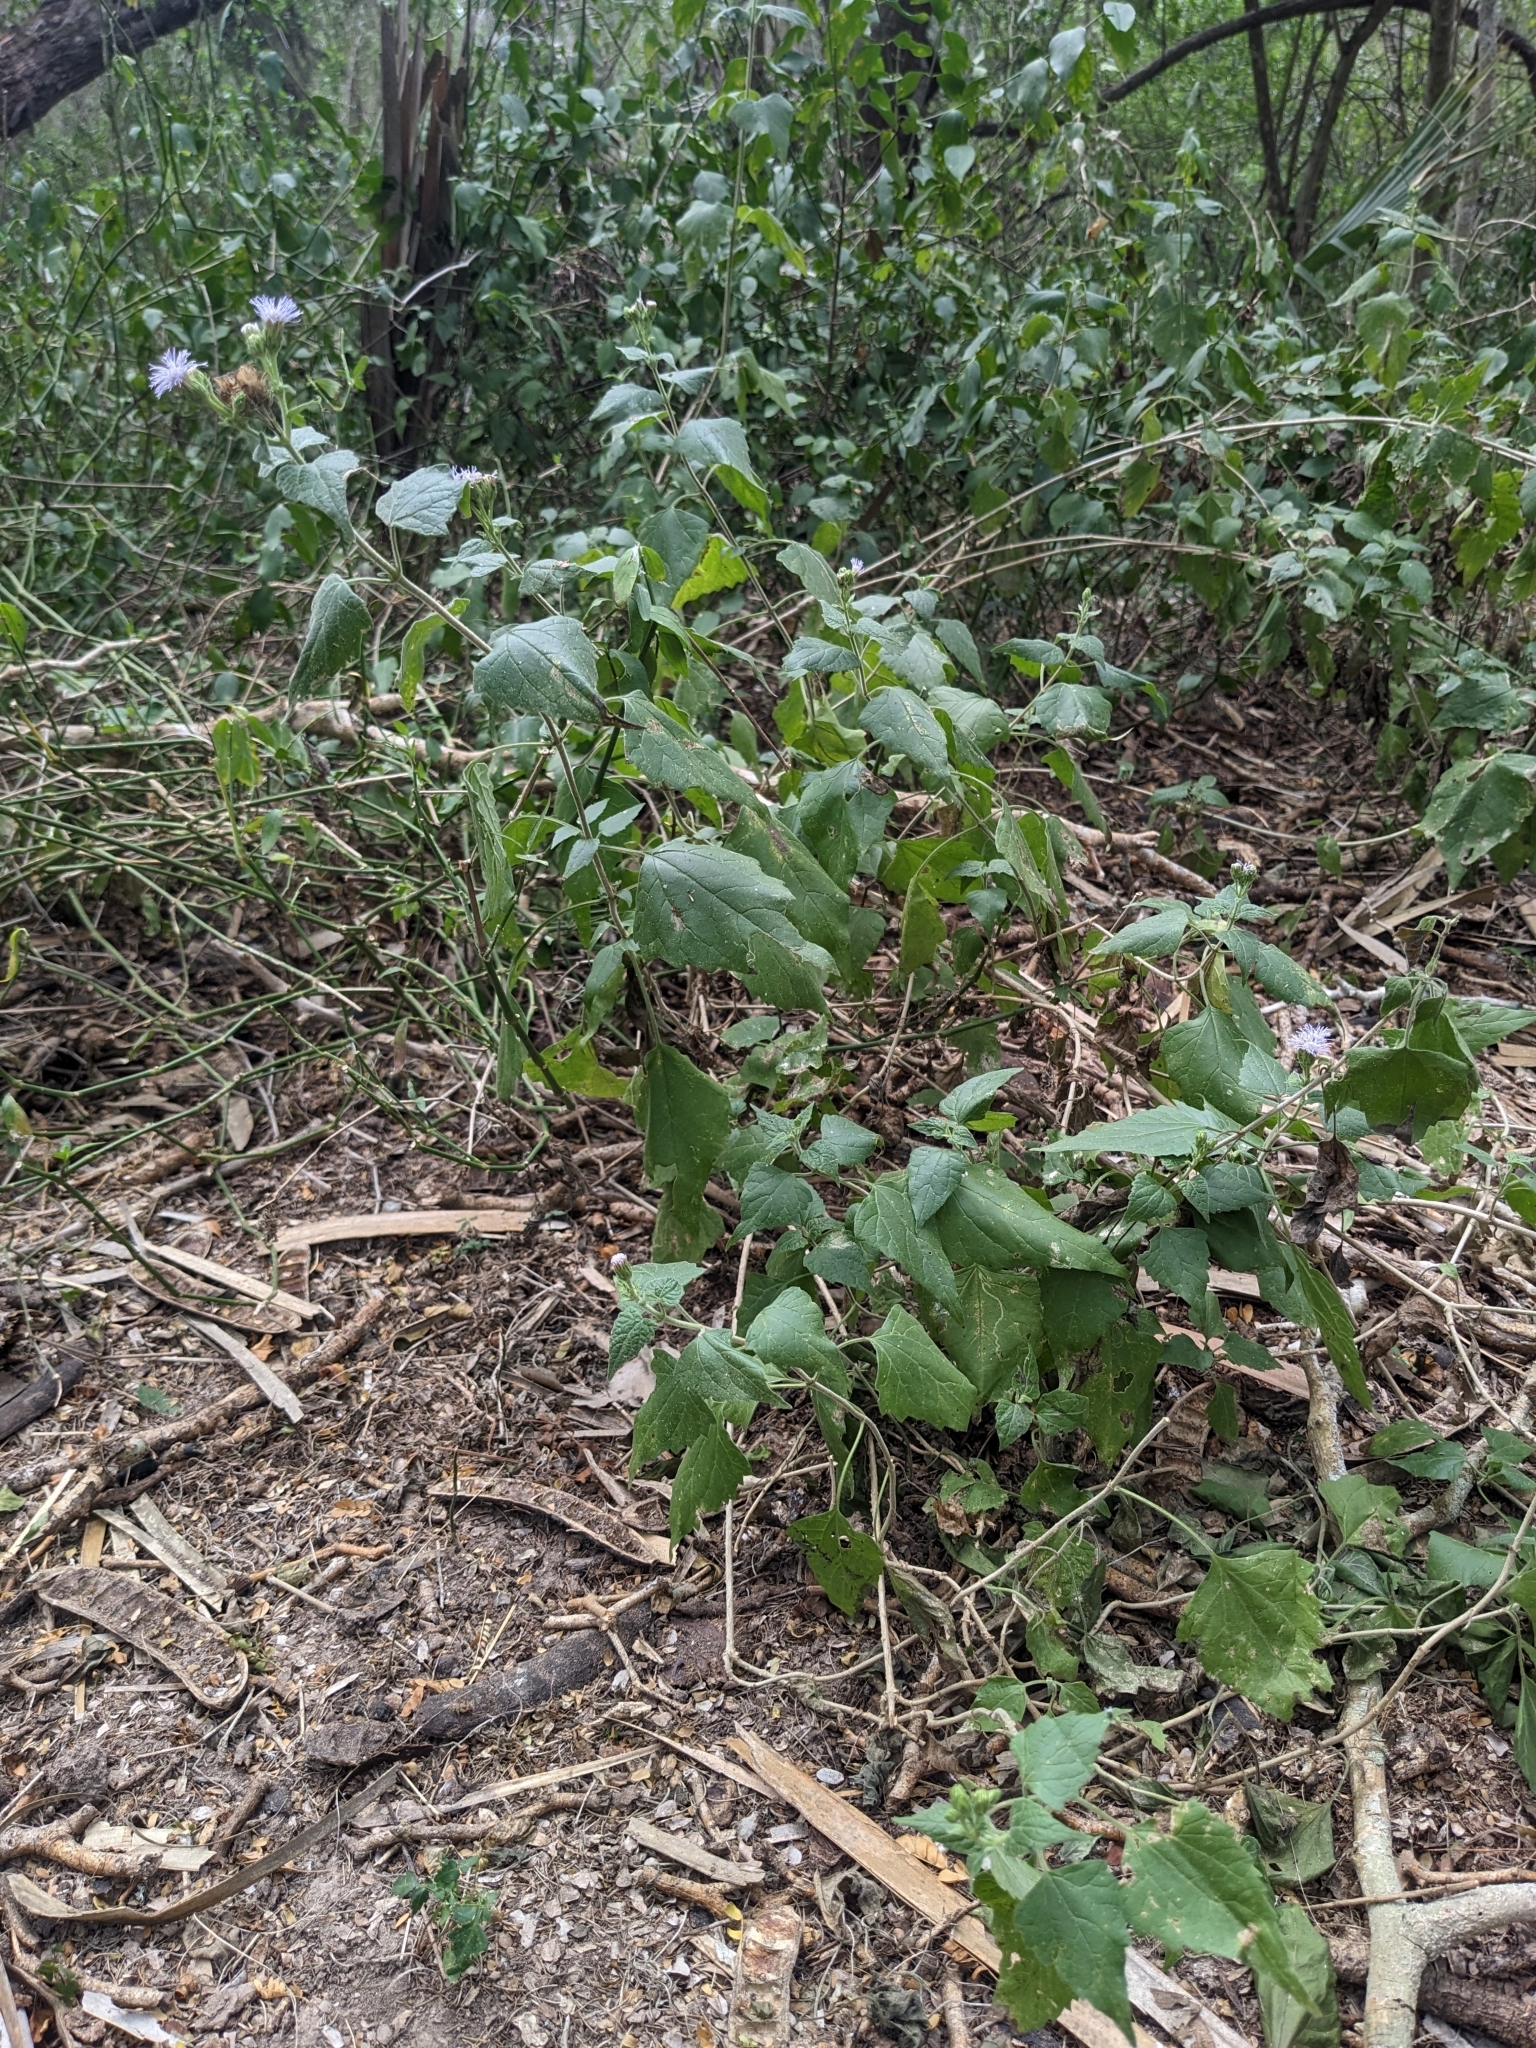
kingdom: Plantae
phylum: Tracheophyta
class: Magnoliopsida
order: Asterales
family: Asteraceae
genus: Tamaulipa
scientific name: Tamaulipa azurea
